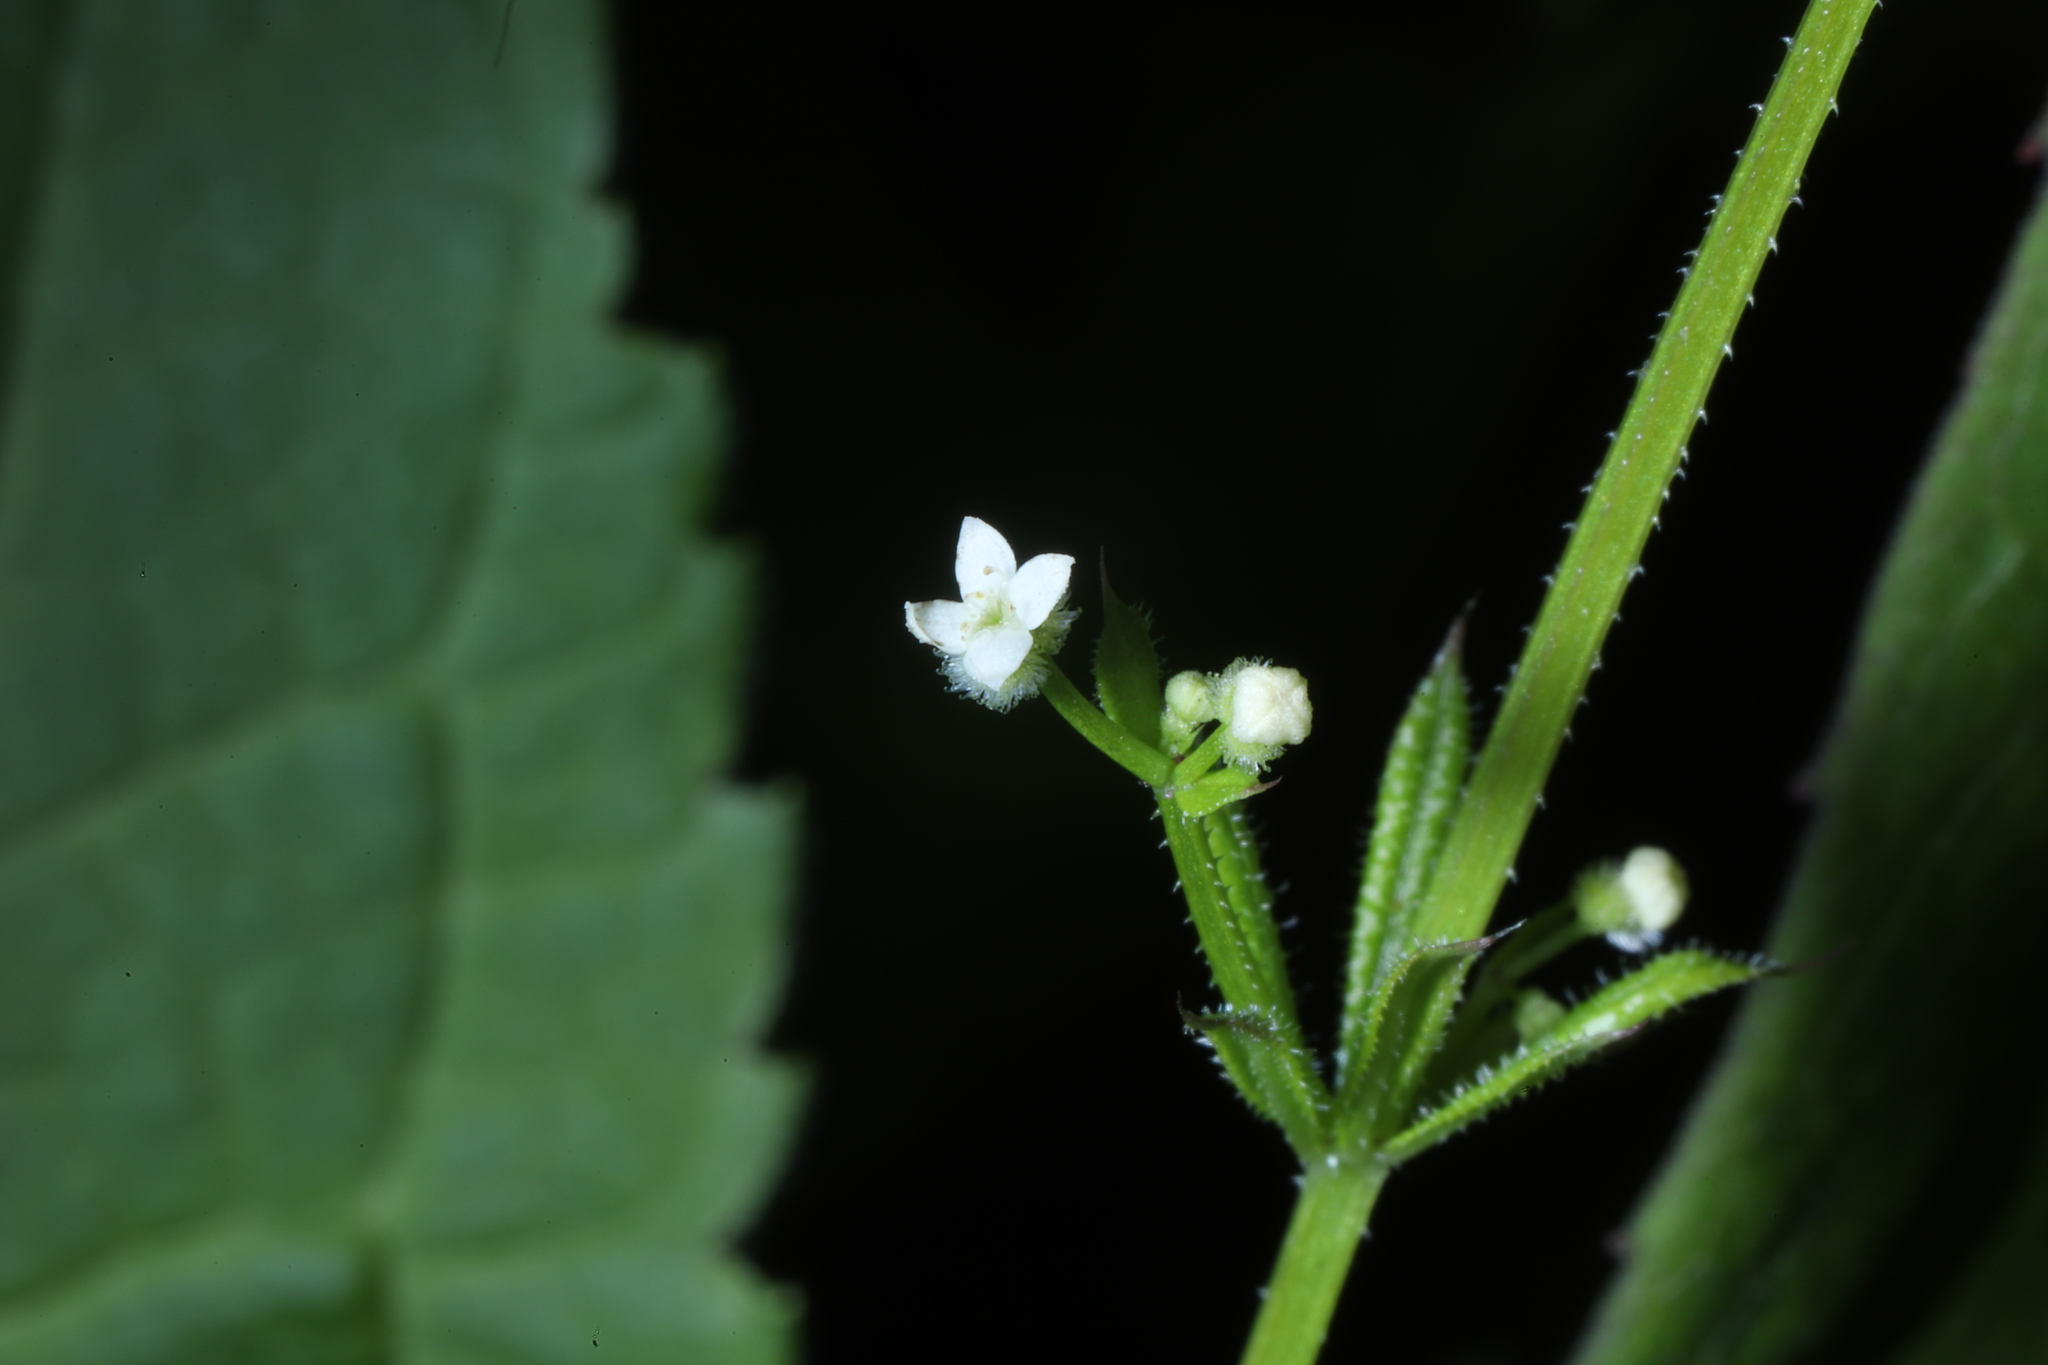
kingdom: Plantae
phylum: Tracheophyta
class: Magnoliopsida
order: Gentianales
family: Rubiaceae
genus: Galium
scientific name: Galium aparine
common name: Cleavers
